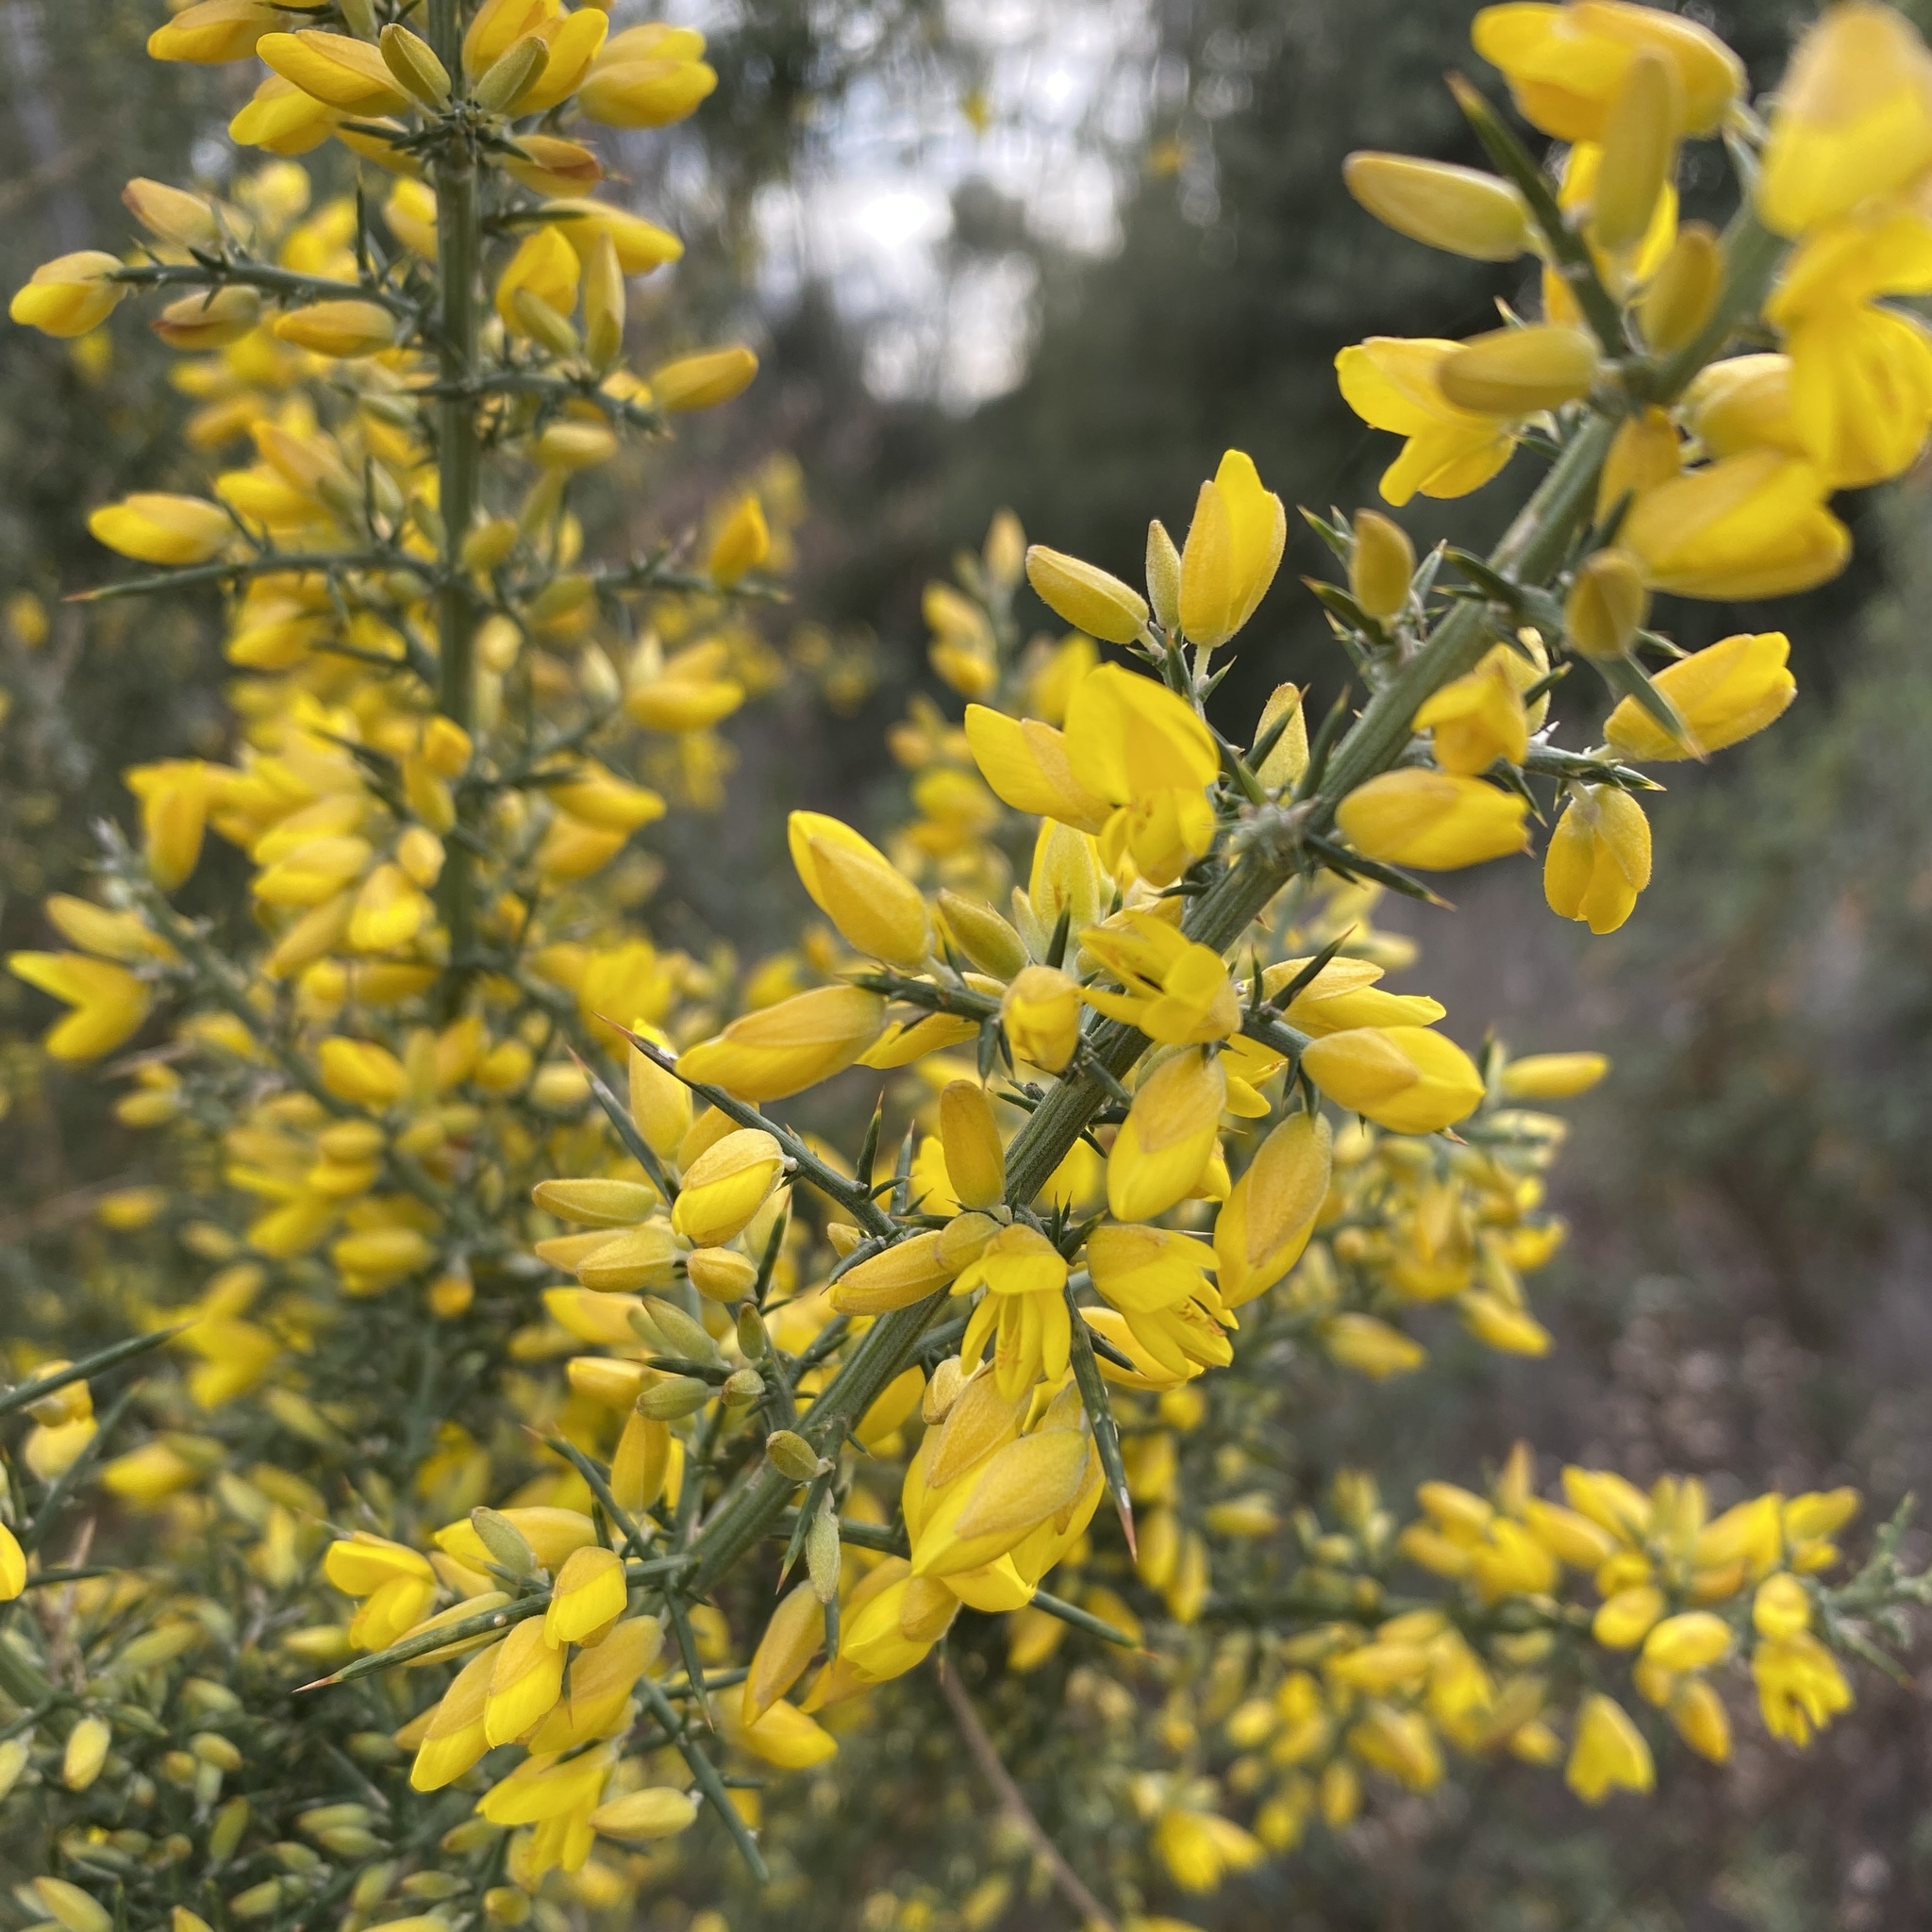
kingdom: Plantae
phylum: Tracheophyta
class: Magnoliopsida
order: Fabales
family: Fabaceae
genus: Ulex
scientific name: Ulex parviflorus
